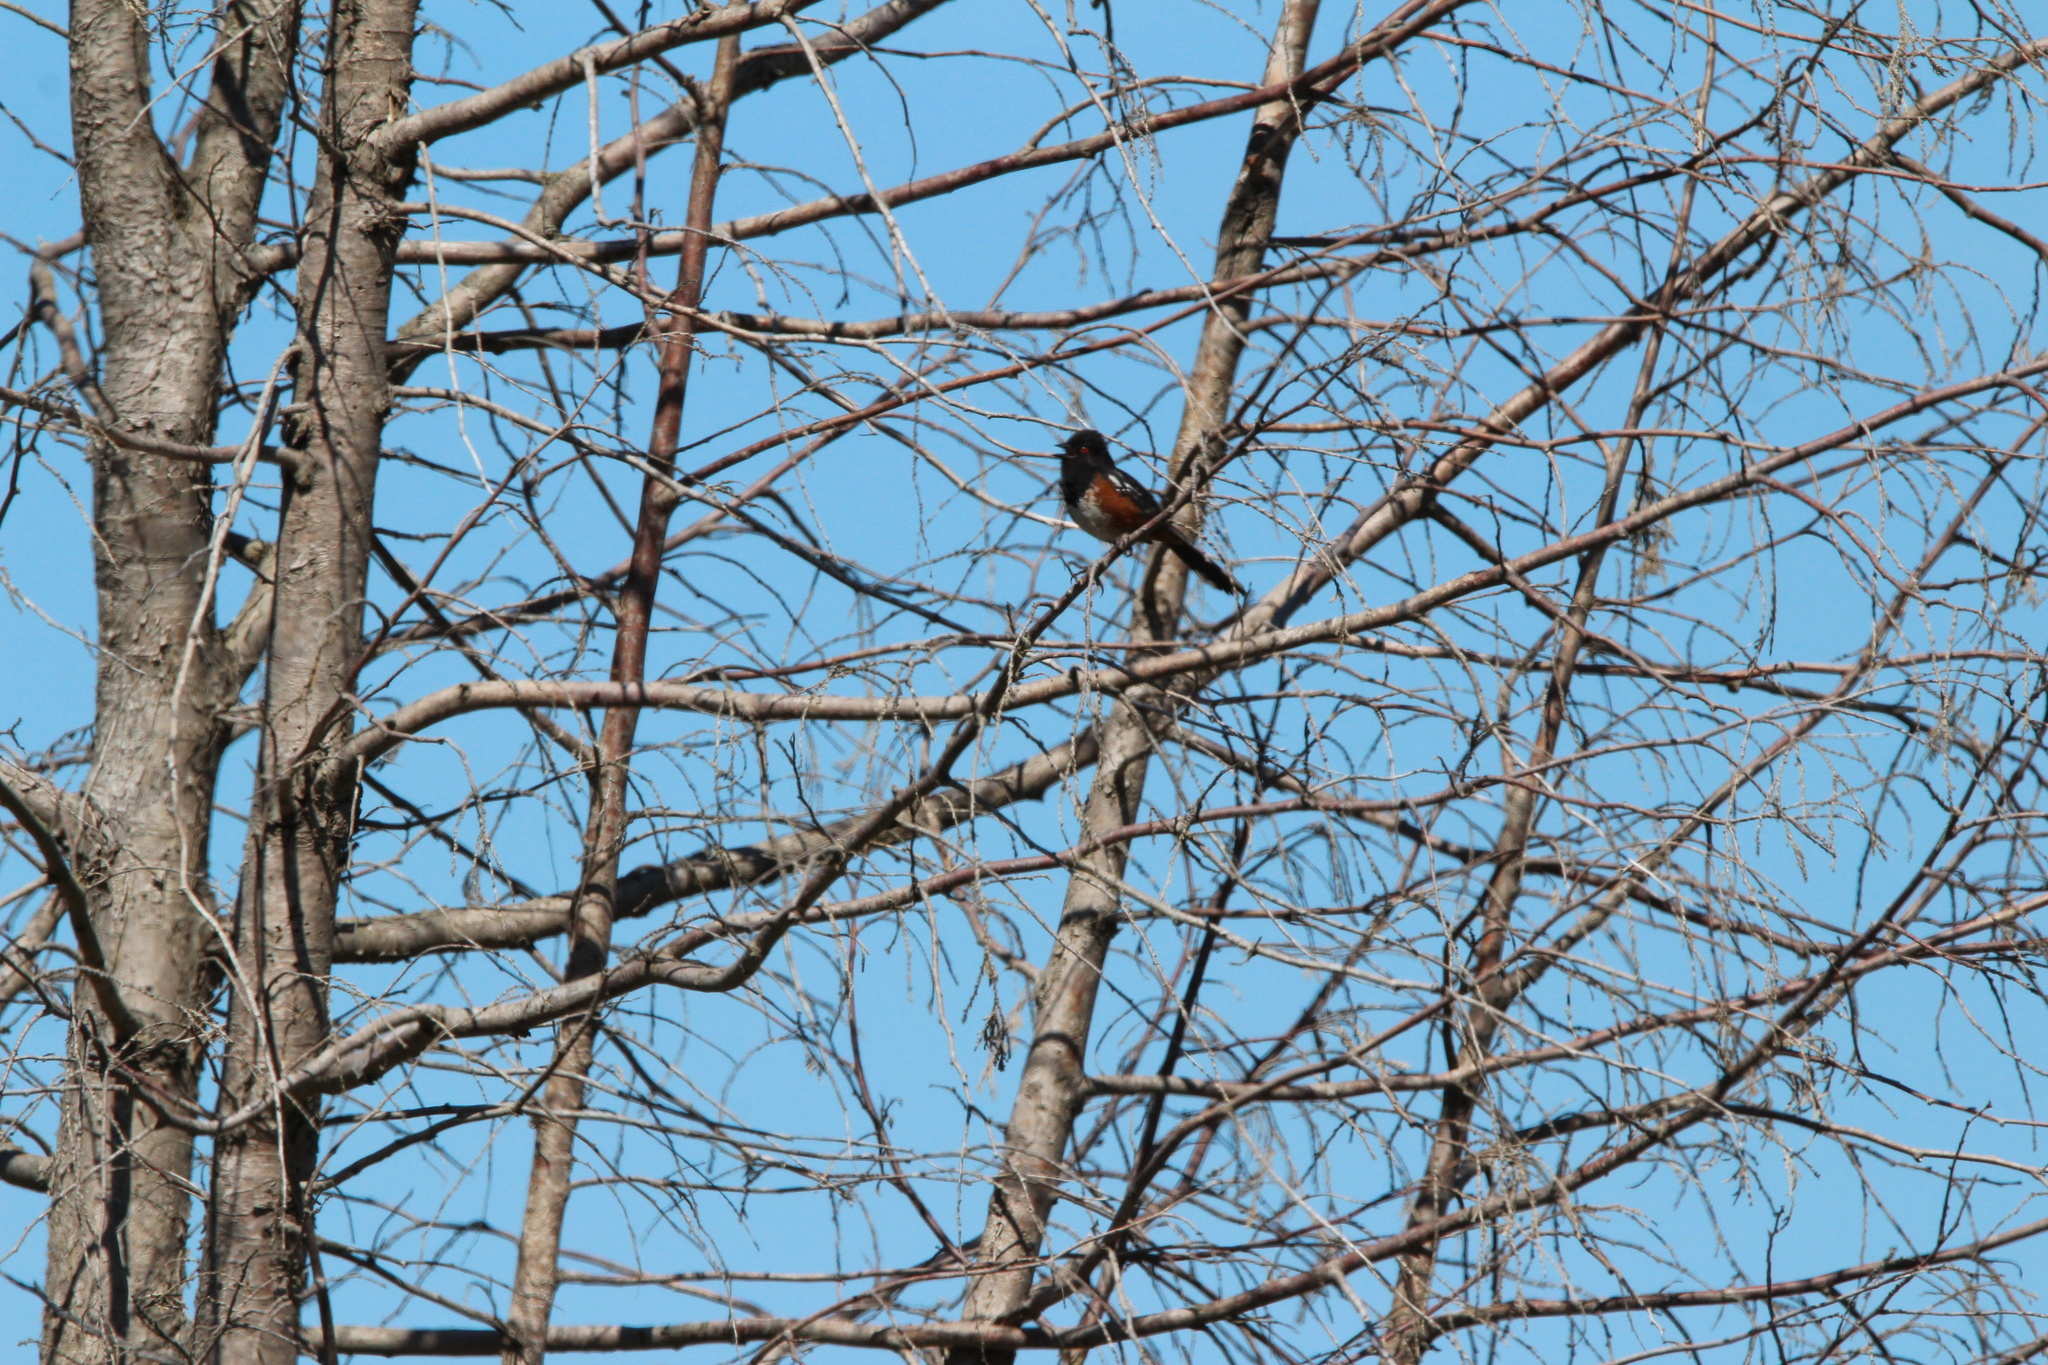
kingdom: Animalia
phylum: Chordata
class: Aves
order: Passeriformes
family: Passerellidae
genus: Pipilo
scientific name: Pipilo maculatus
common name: Spotted towhee
